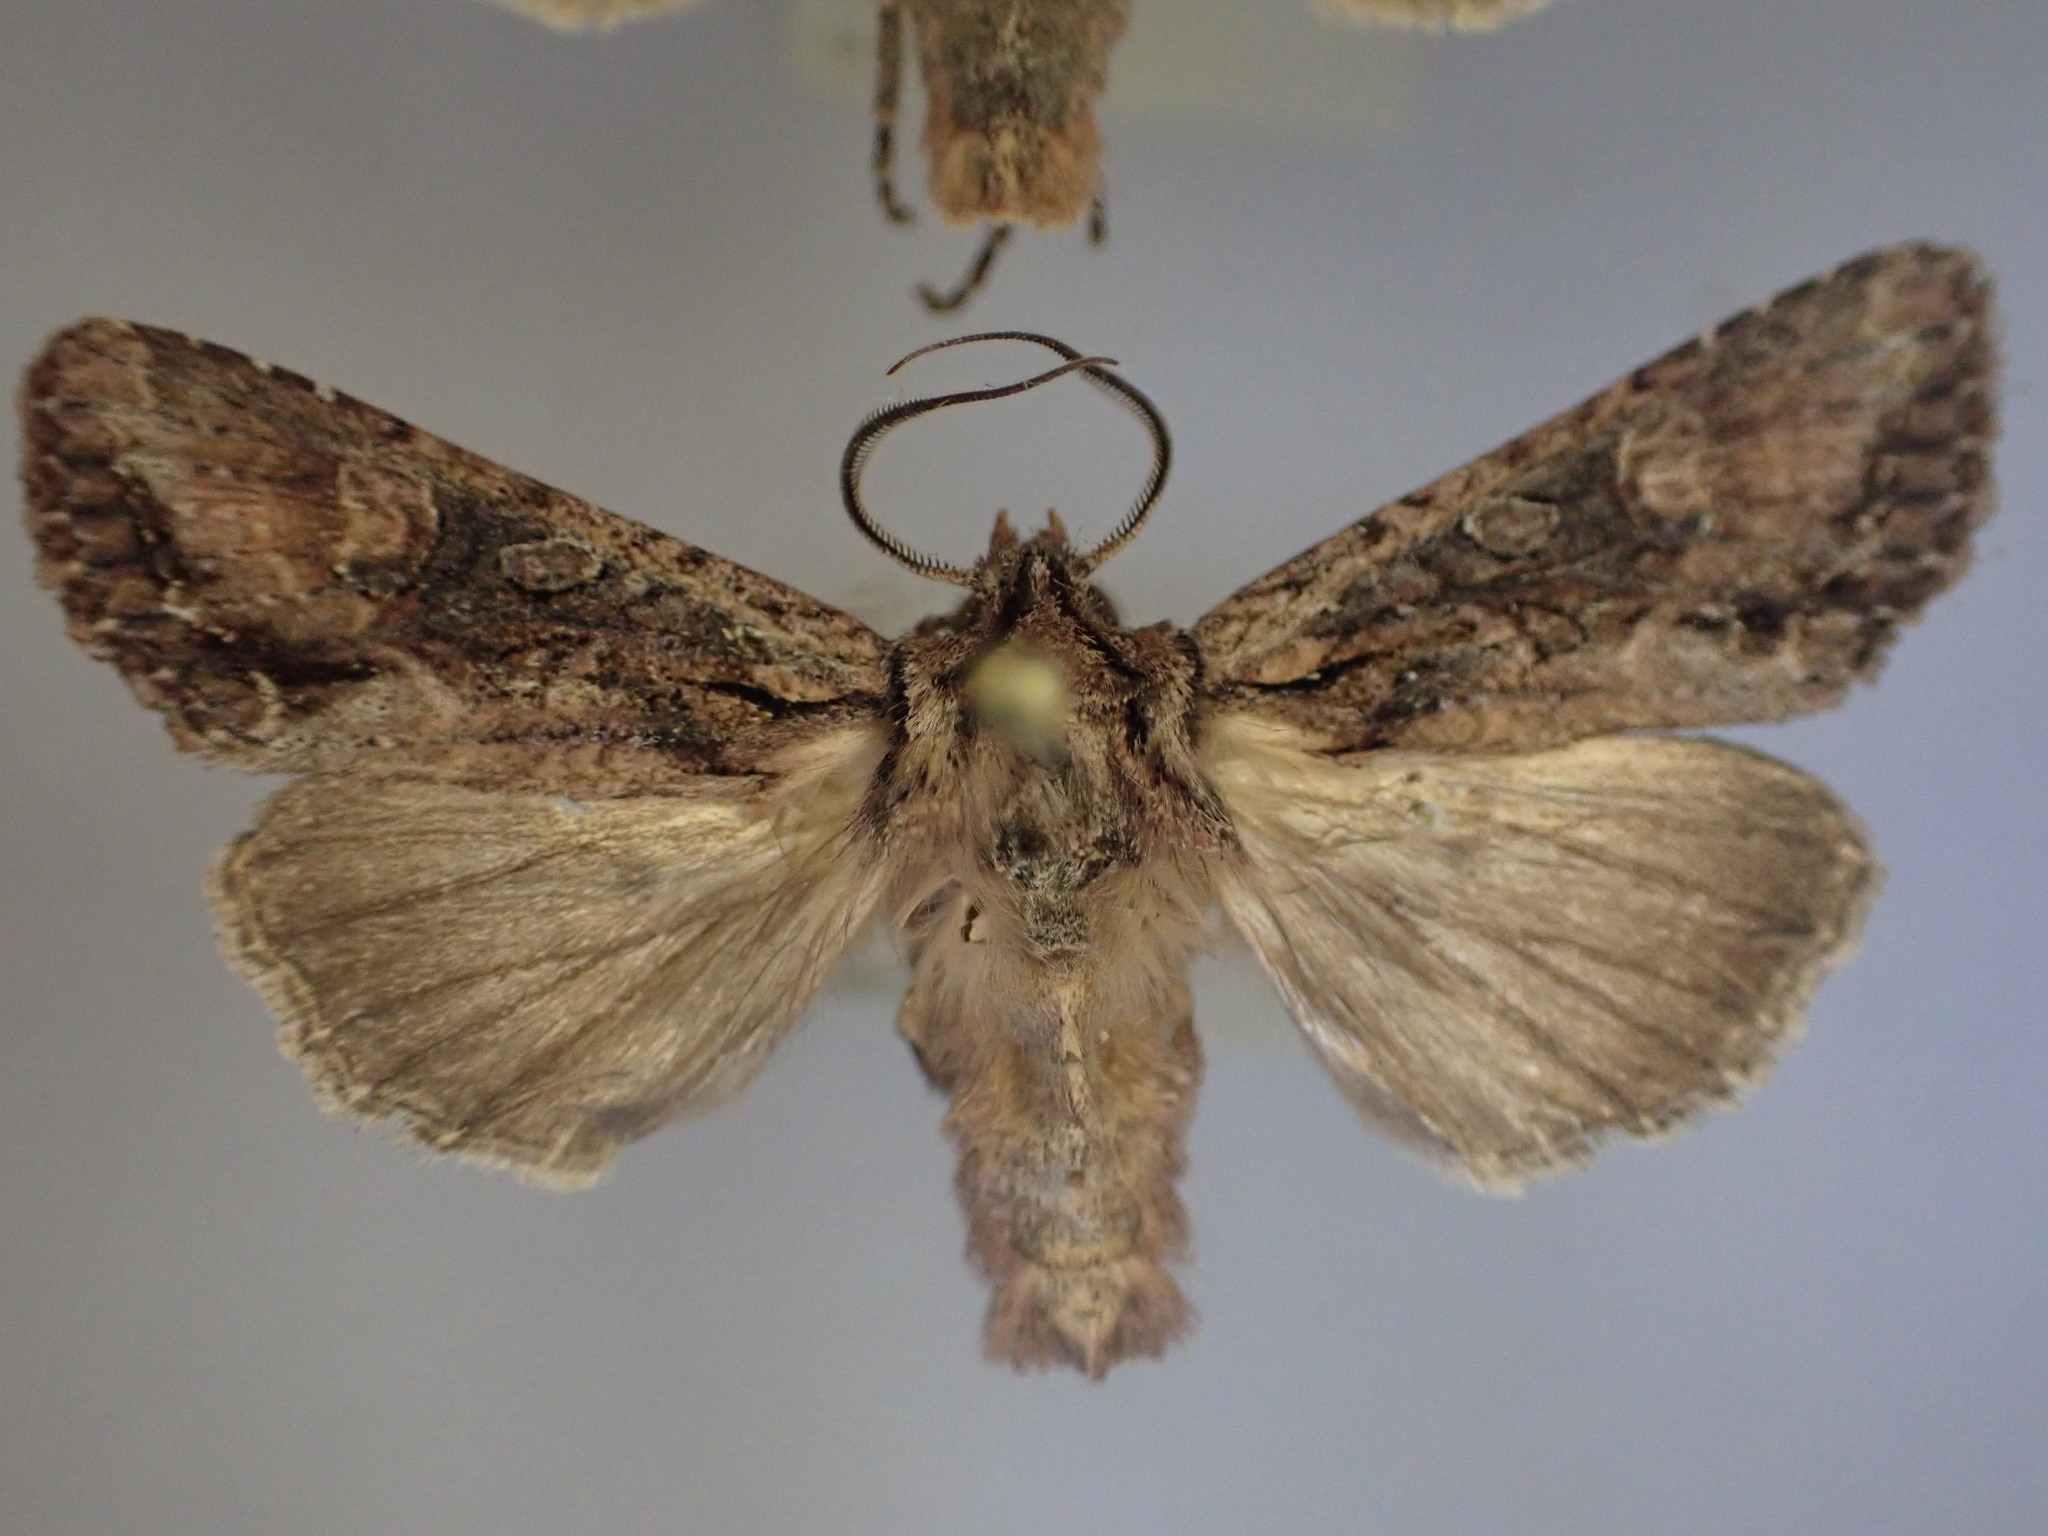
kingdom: Animalia
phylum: Arthropoda
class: Insecta
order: Lepidoptera
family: Noctuidae
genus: Ichneutica
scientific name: Ichneutica mutans
